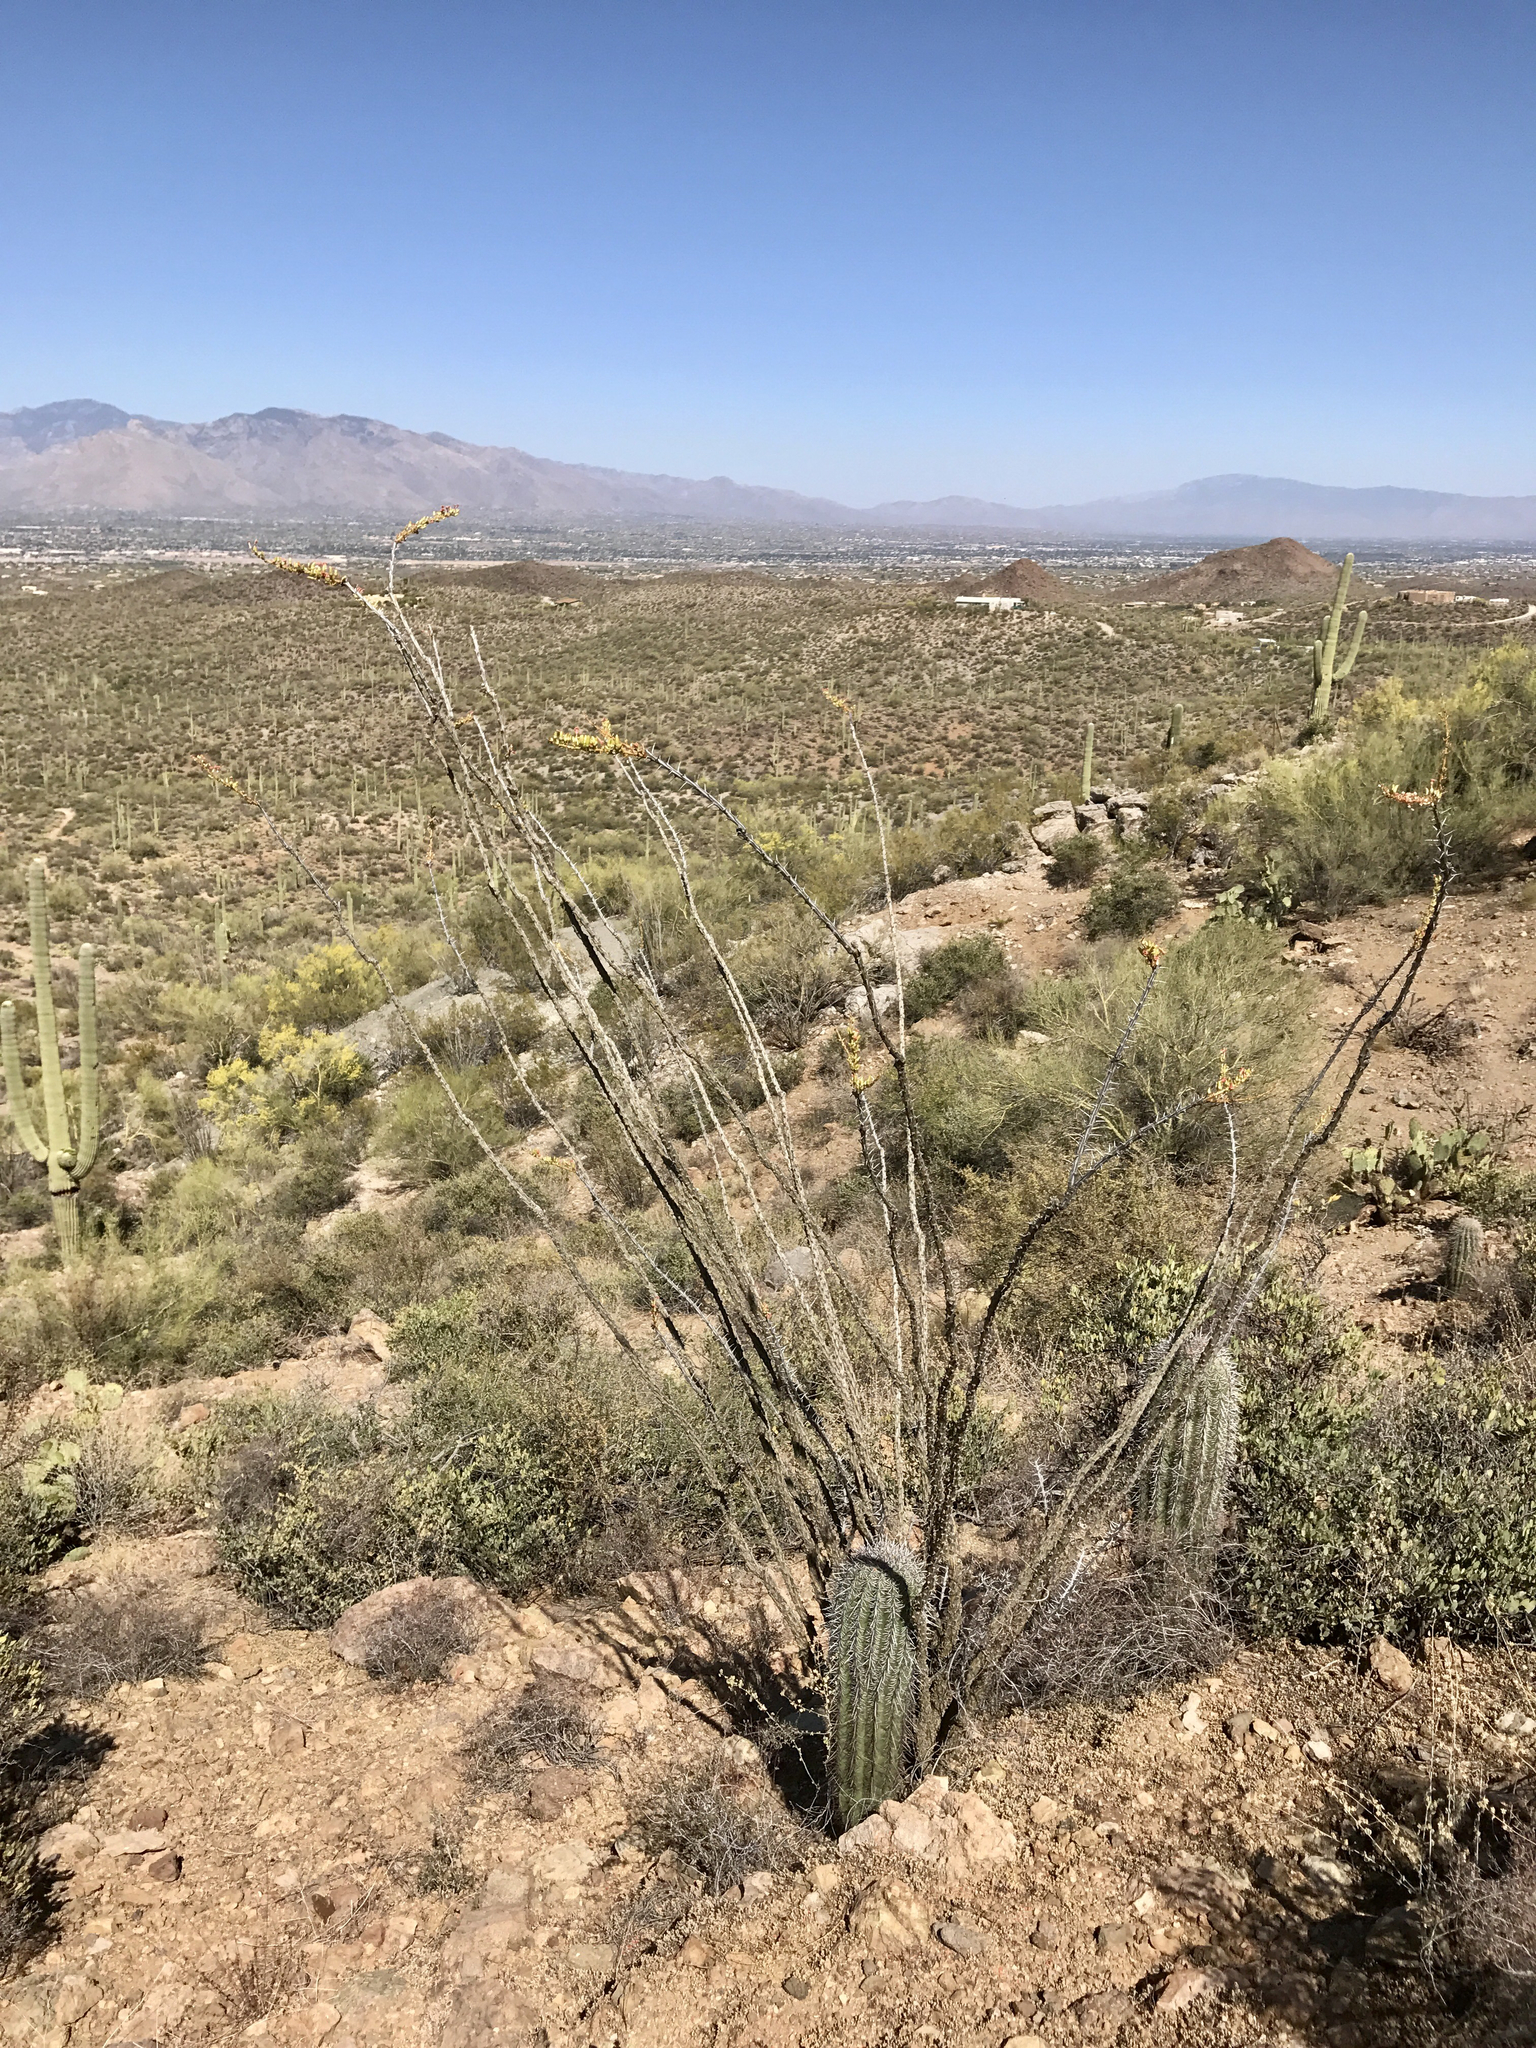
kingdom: Plantae
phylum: Tracheophyta
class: Magnoliopsida
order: Ericales
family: Fouquieriaceae
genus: Fouquieria
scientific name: Fouquieria splendens
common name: Vine-cactus
